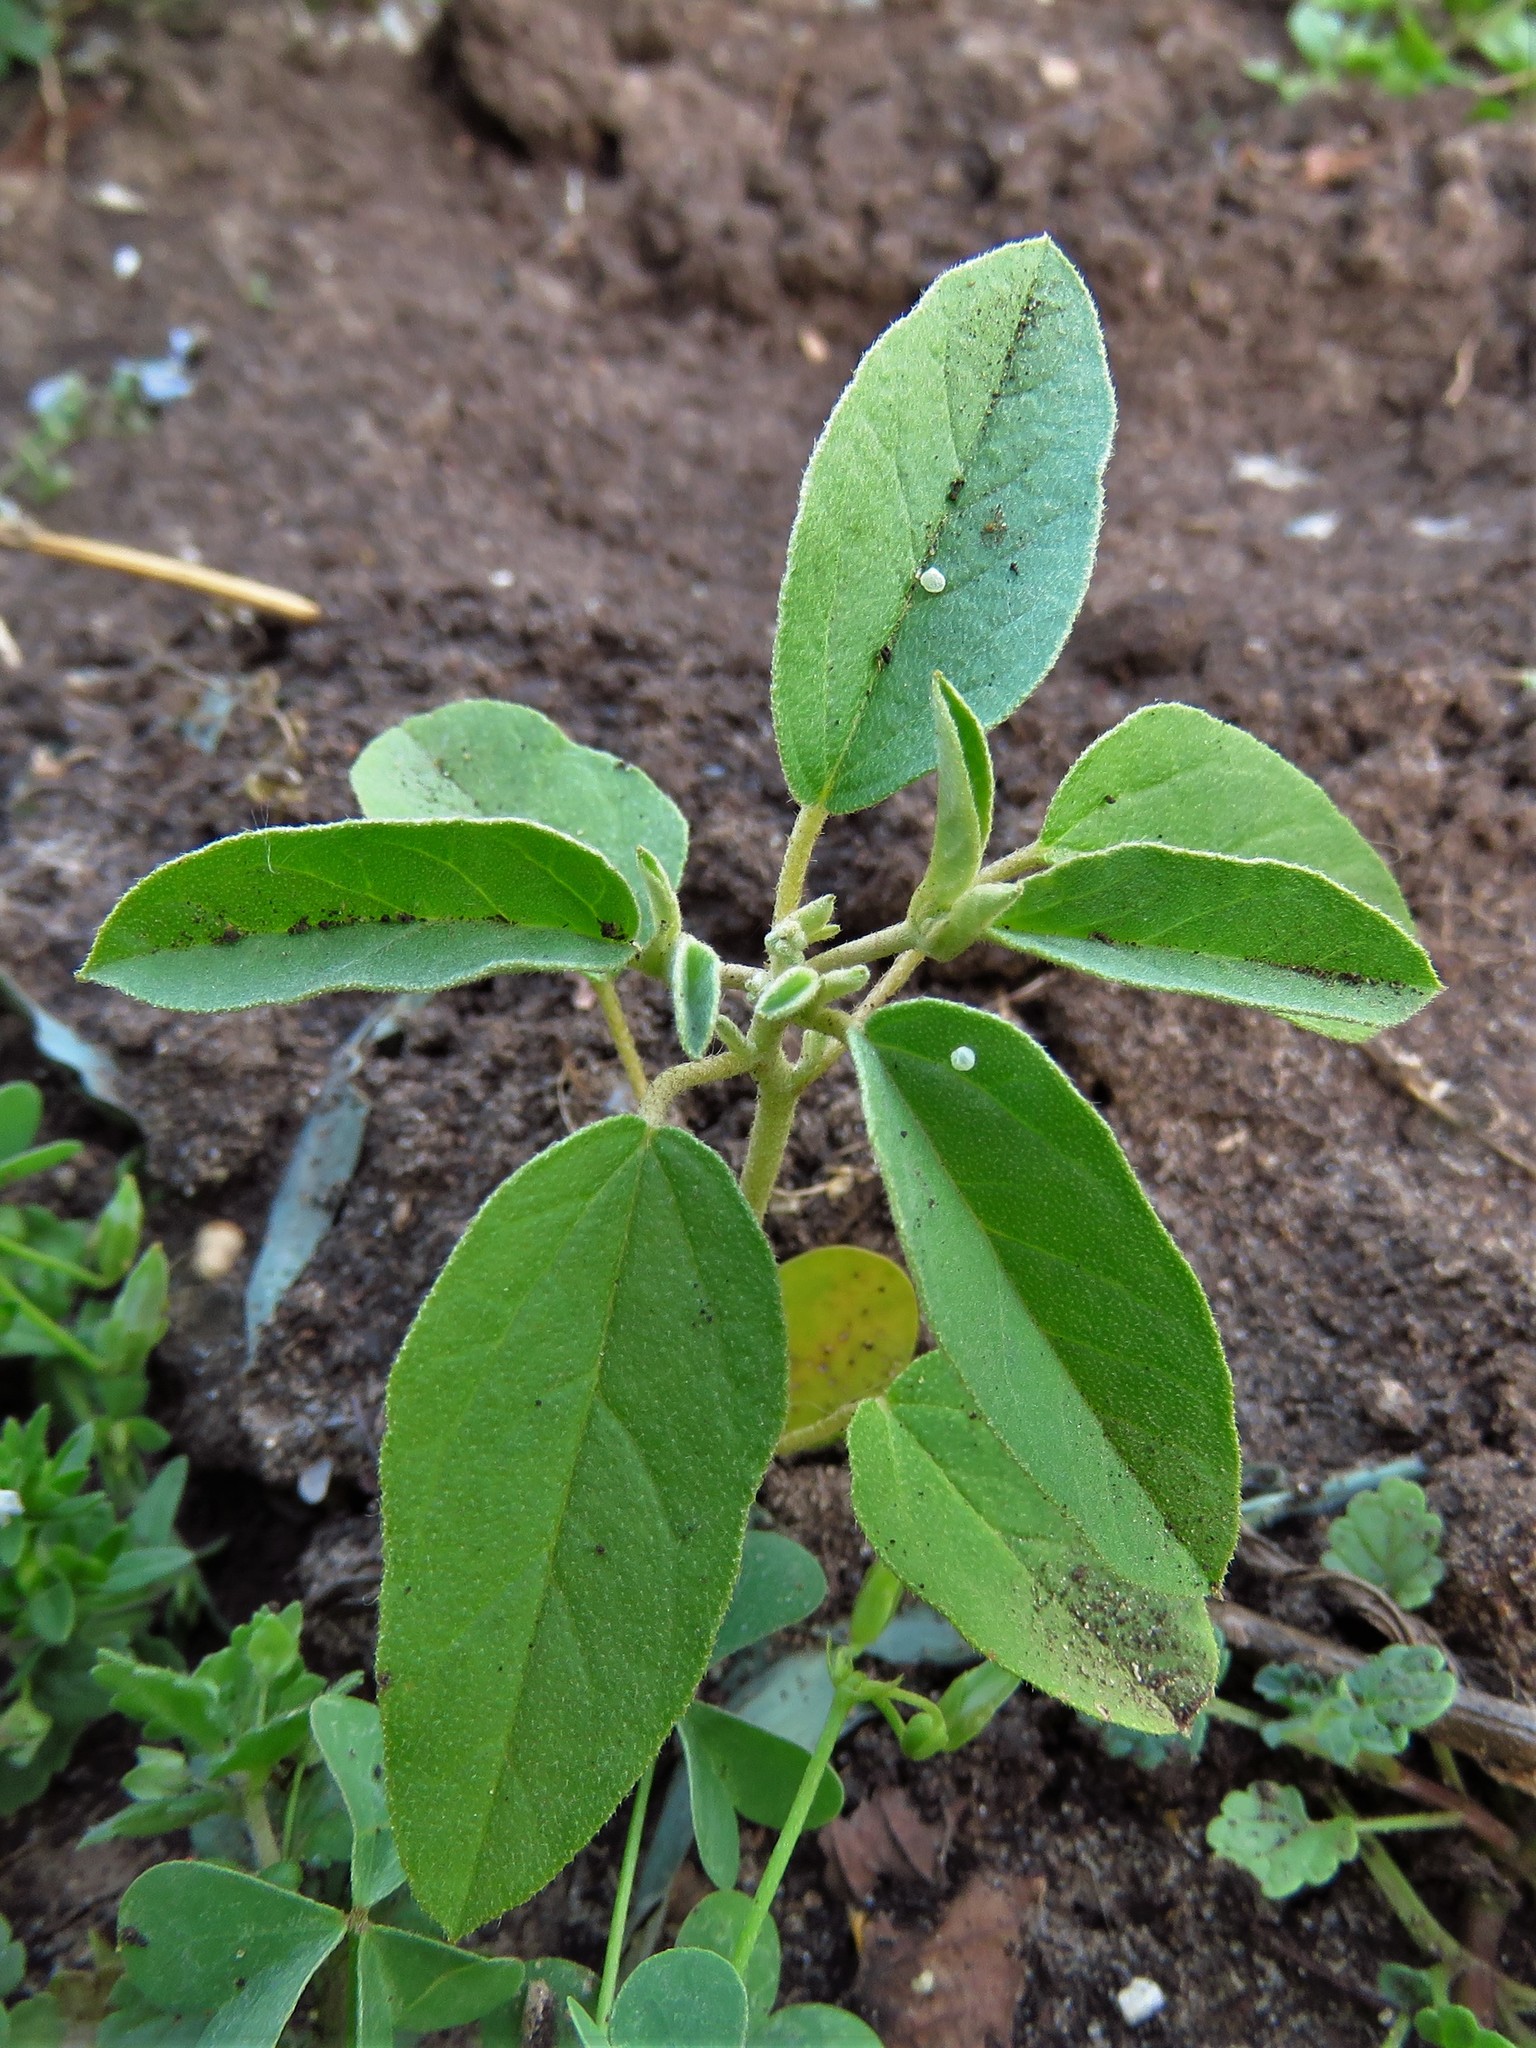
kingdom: Plantae
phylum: Tracheophyta
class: Magnoliopsida
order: Malpighiales
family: Euphorbiaceae
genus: Croton
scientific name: Croton monanthogynus
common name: One-seed croton
